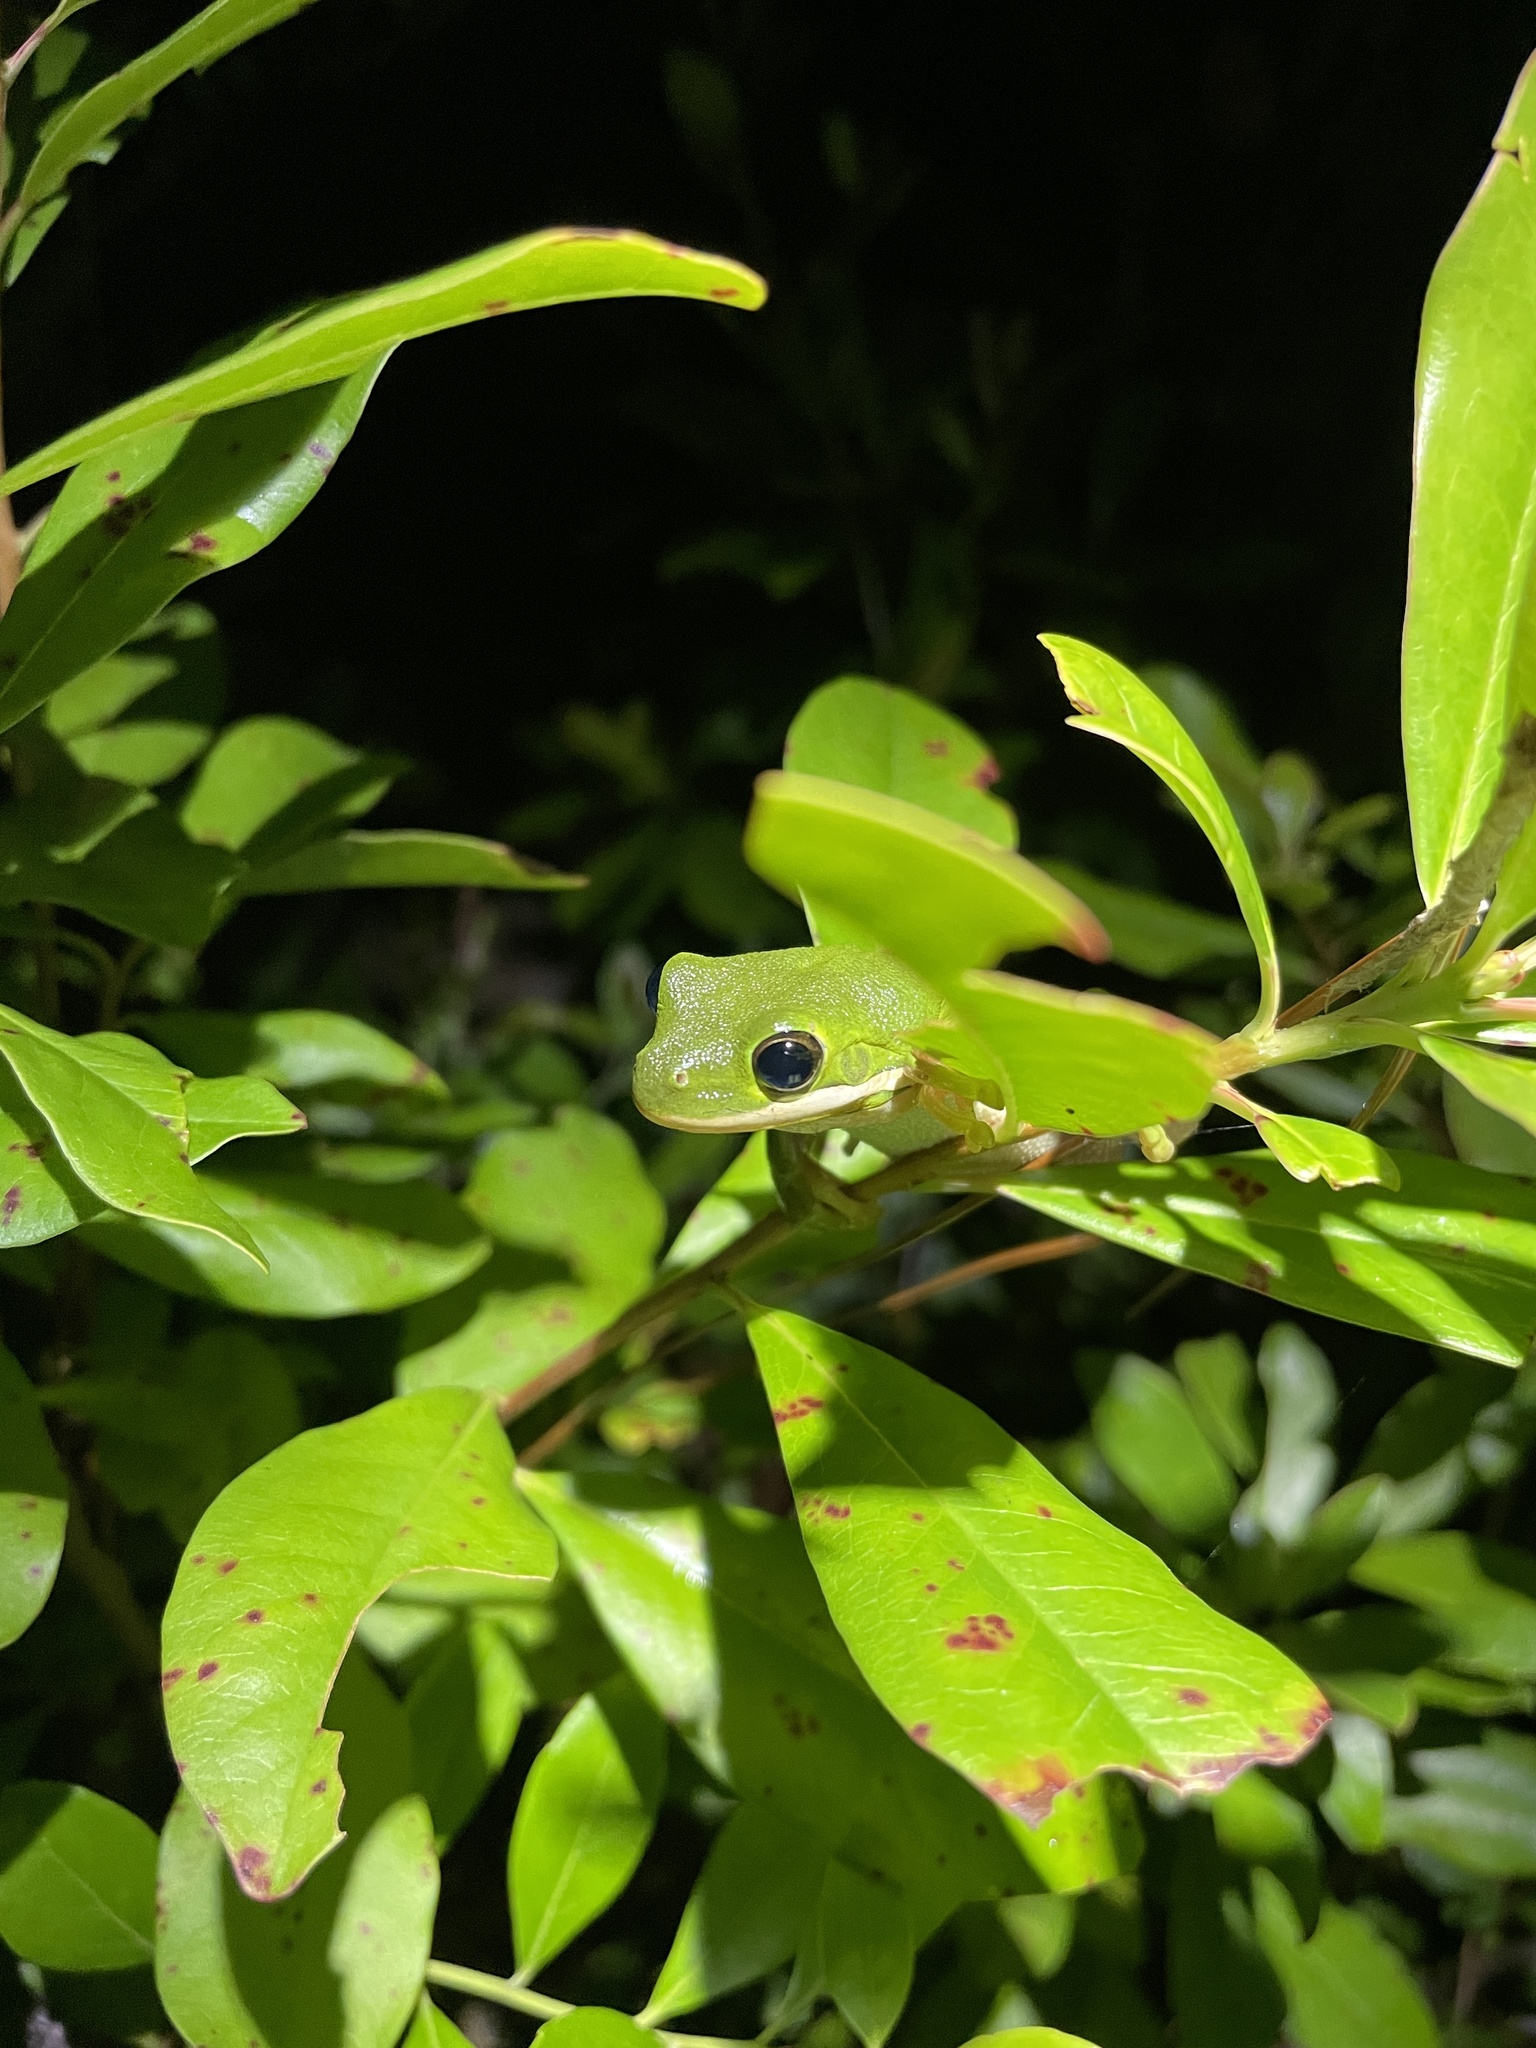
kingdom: Animalia
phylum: Chordata
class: Amphibia
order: Anura
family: Hylidae
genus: Dryophytes
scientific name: Dryophytes cinereus
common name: Green treefrog
